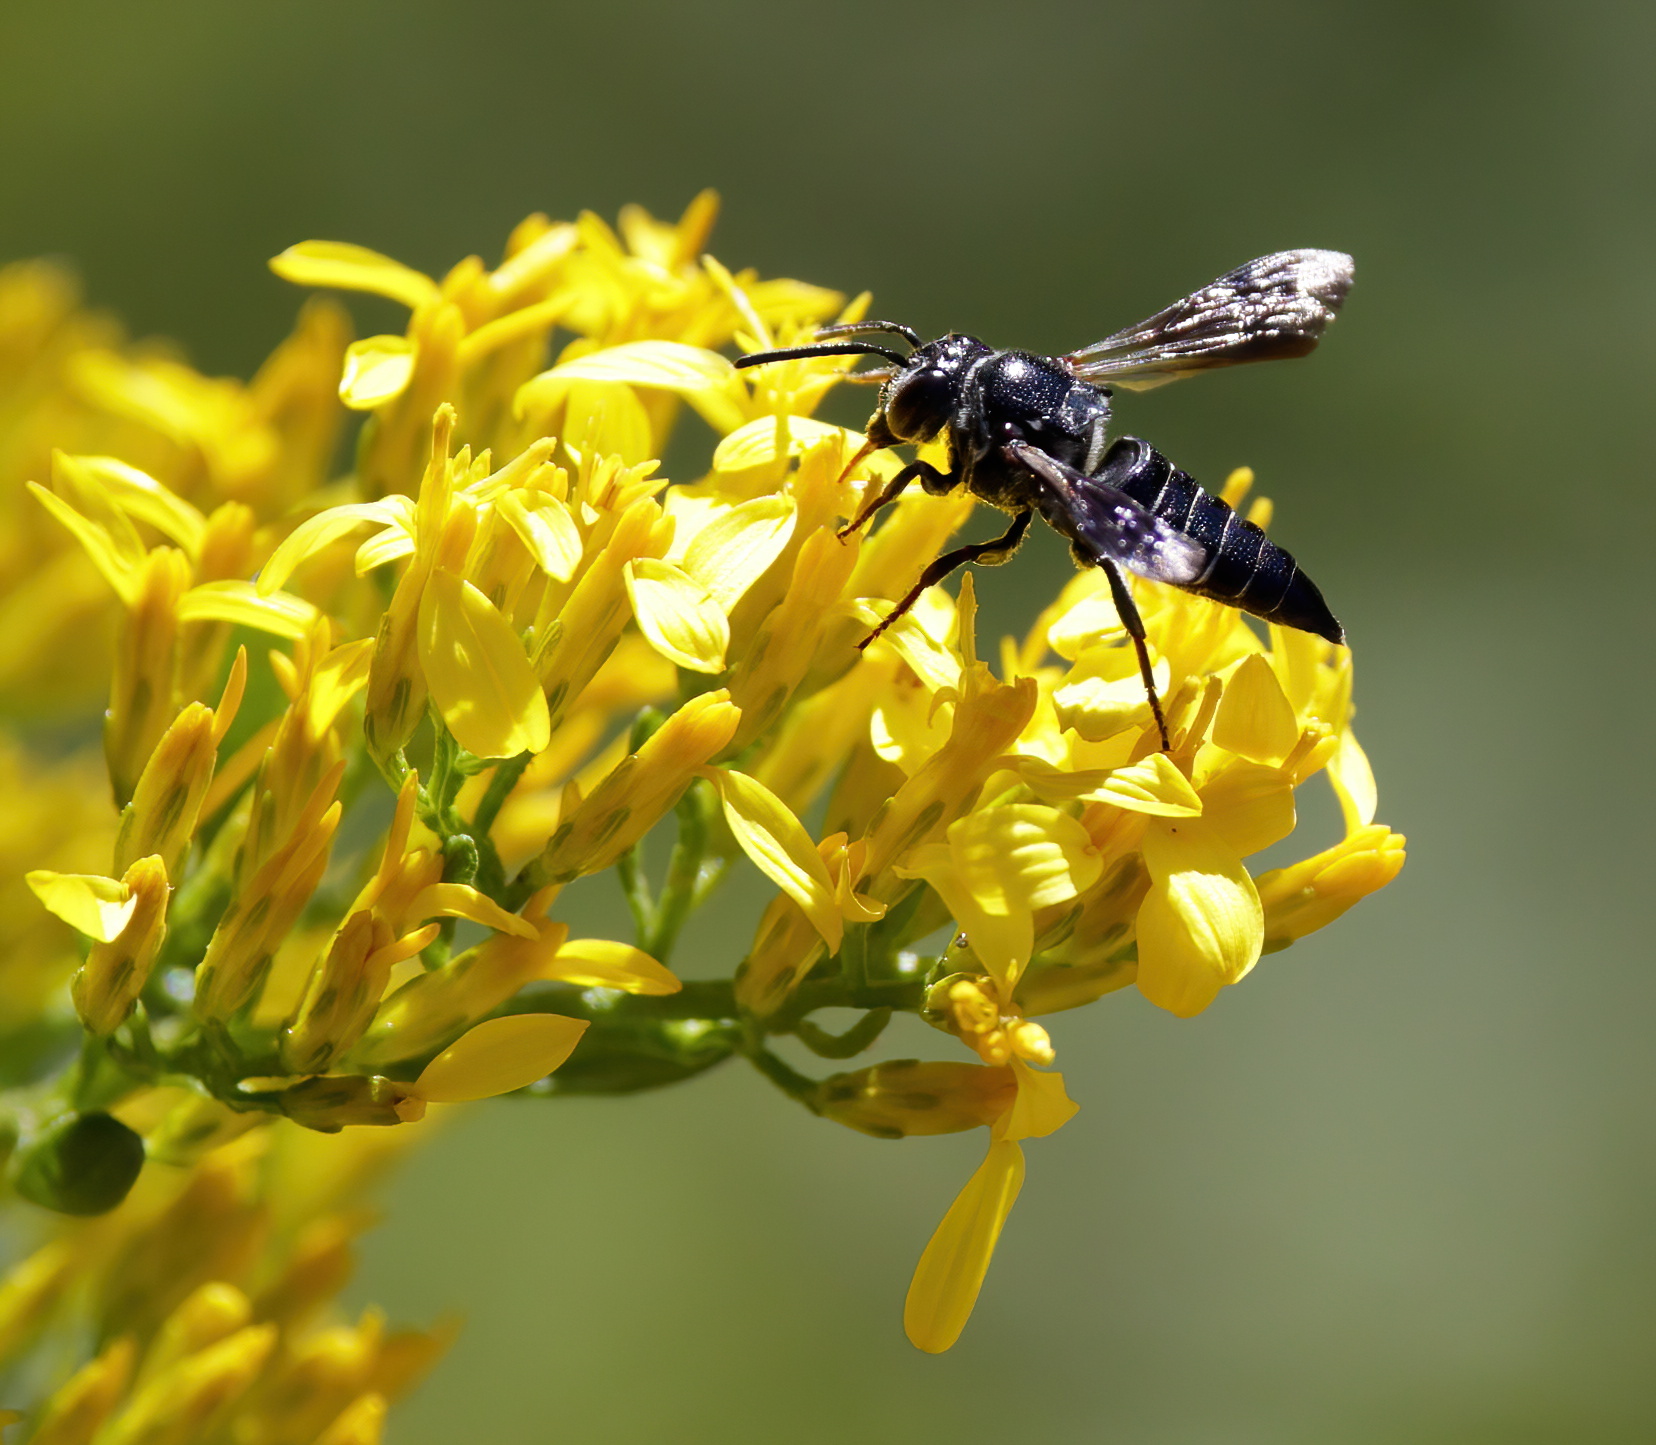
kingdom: Animalia
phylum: Arthropoda
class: Insecta
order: Hymenoptera
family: Megachilidae
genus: Coelioxys
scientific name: Coelioxys dolichos
